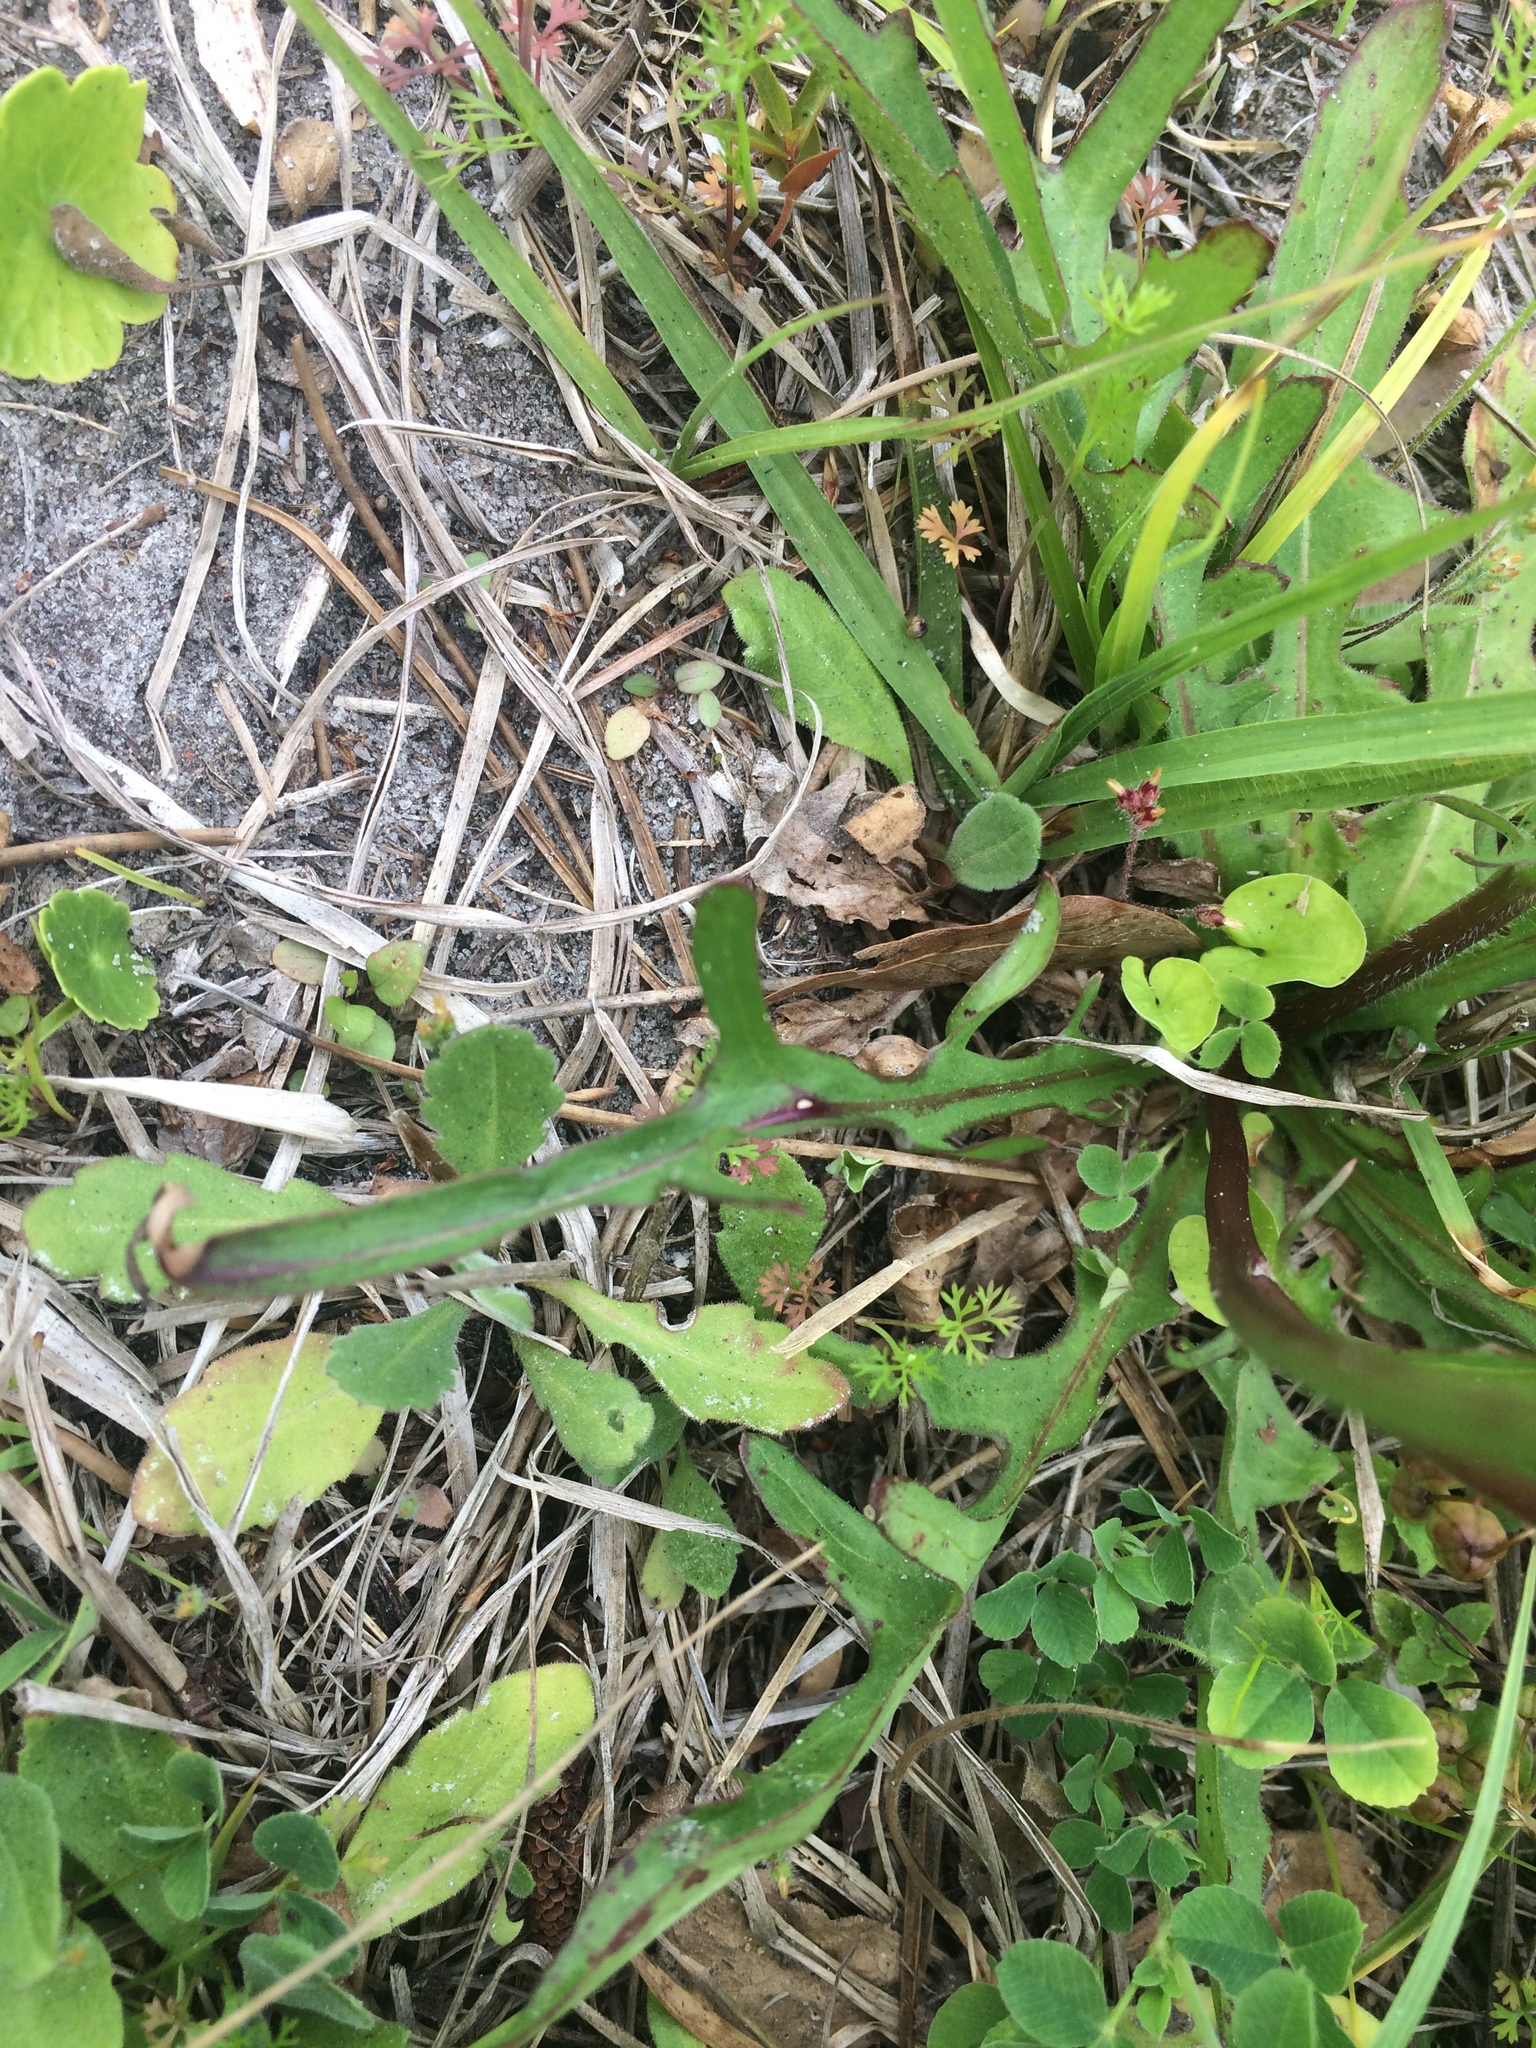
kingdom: Plantae
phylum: Tracheophyta
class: Magnoliopsida
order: Asterales
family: Asteraceae
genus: Pyrrhopappus
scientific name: Pyrrhopappus carolinianus
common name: Carolina desert-chicory
